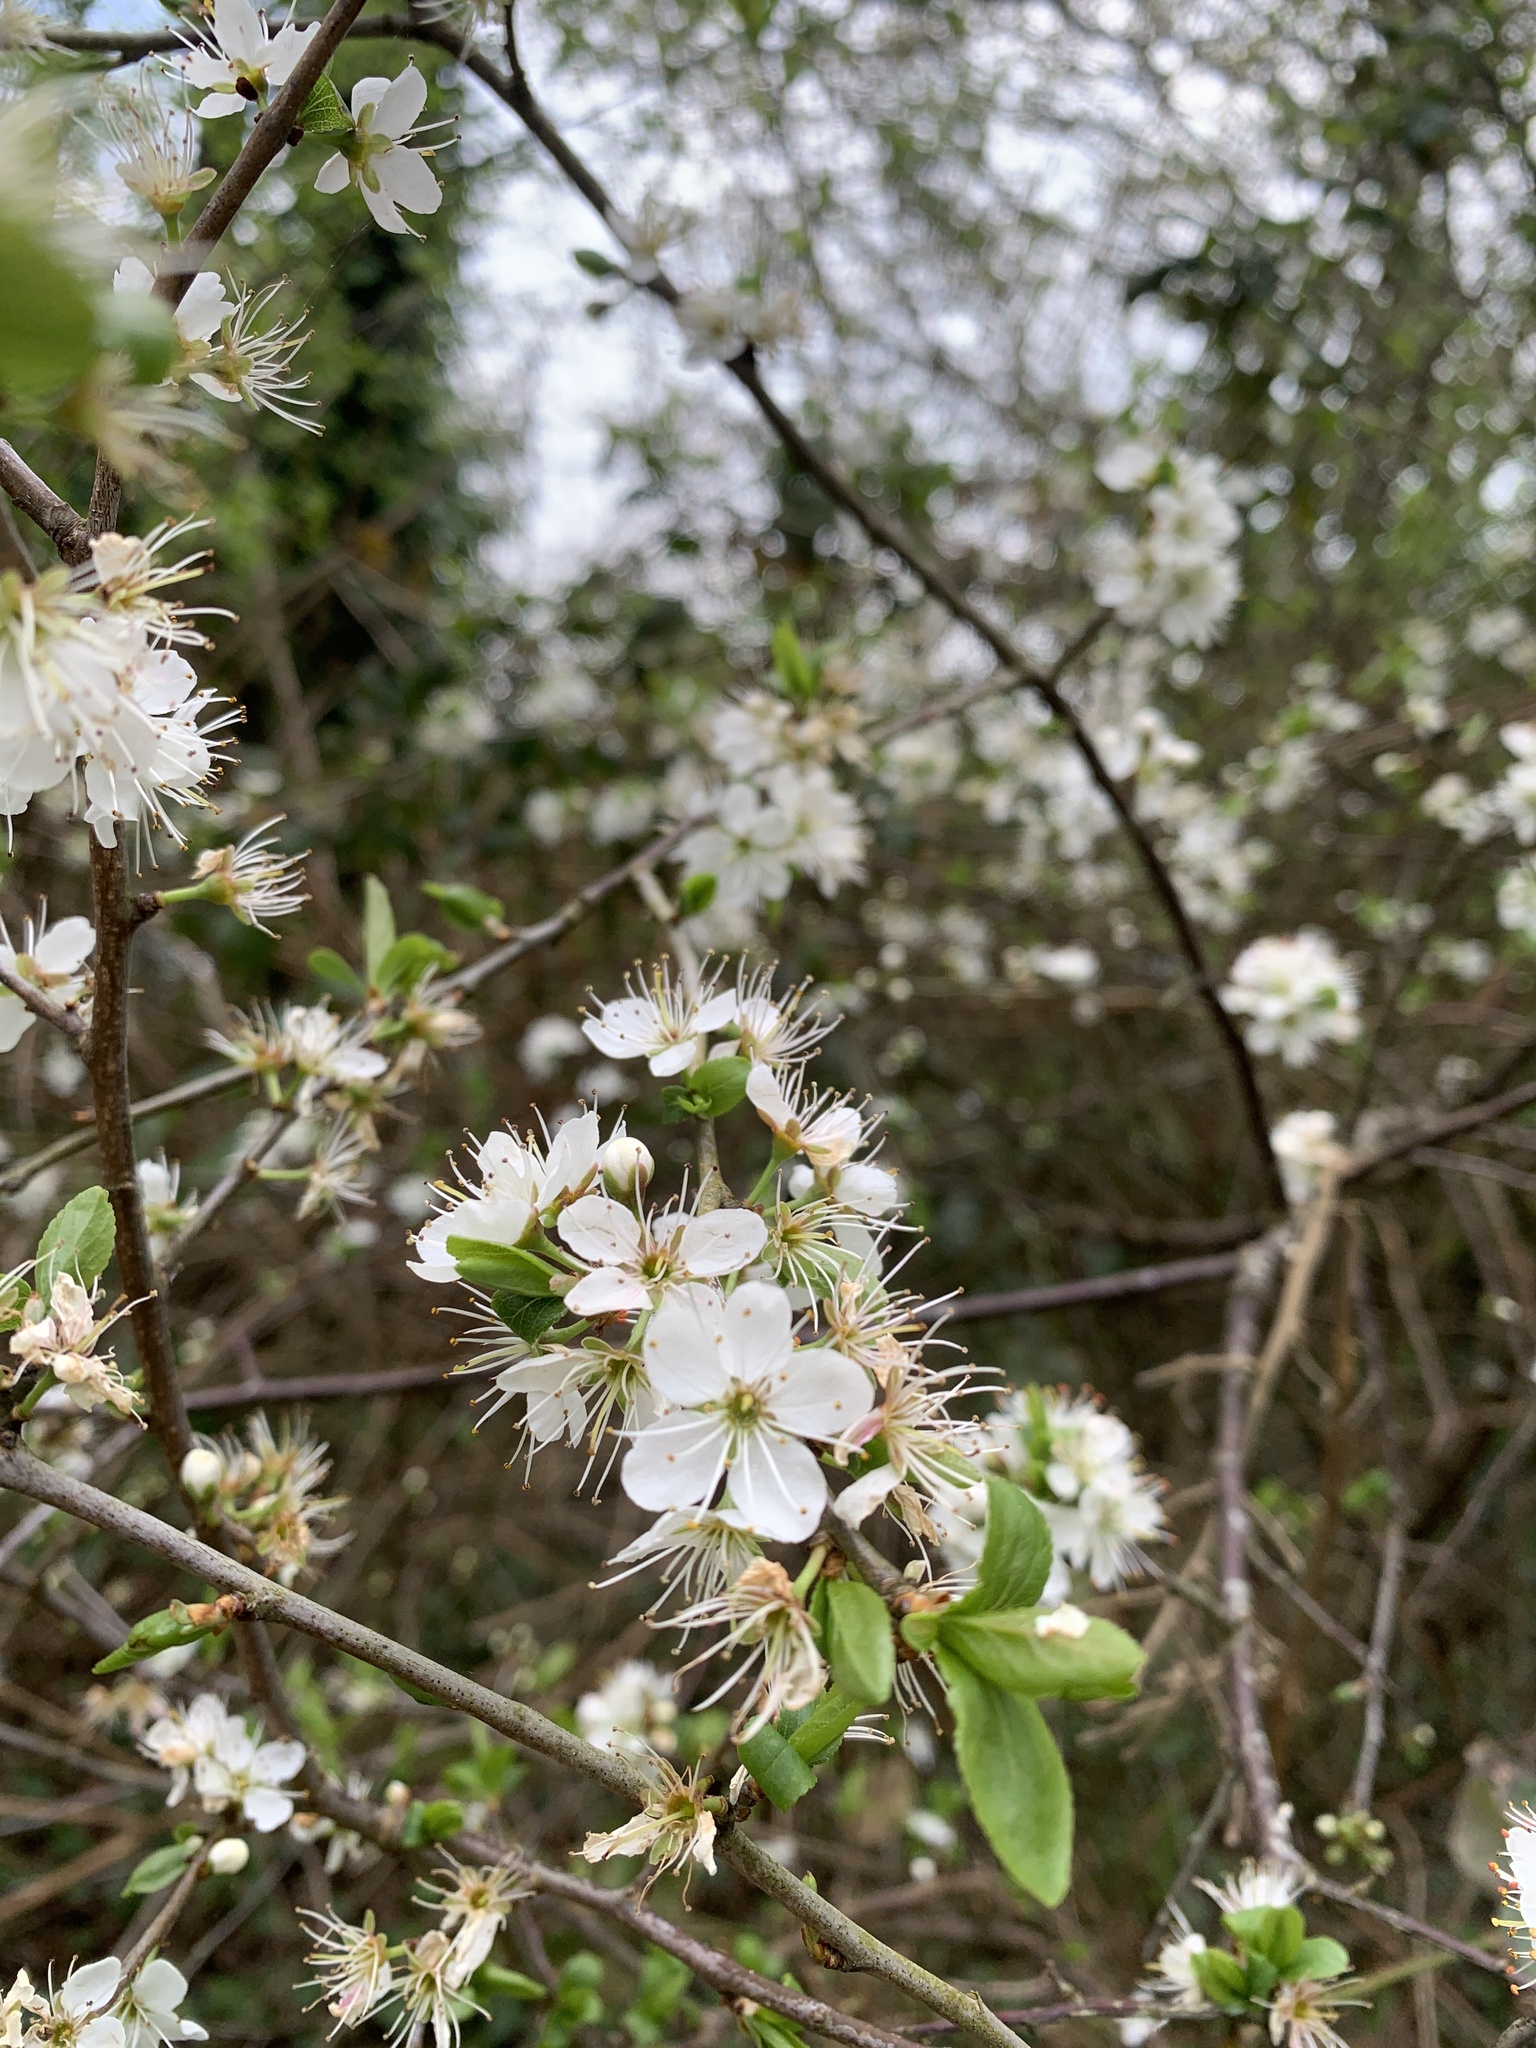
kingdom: Plantae
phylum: Tracheophyta
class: Magnoliopsida
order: Rosales
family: Rosaceae
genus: Prunus
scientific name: Prunus spinosa
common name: Blackthorn
